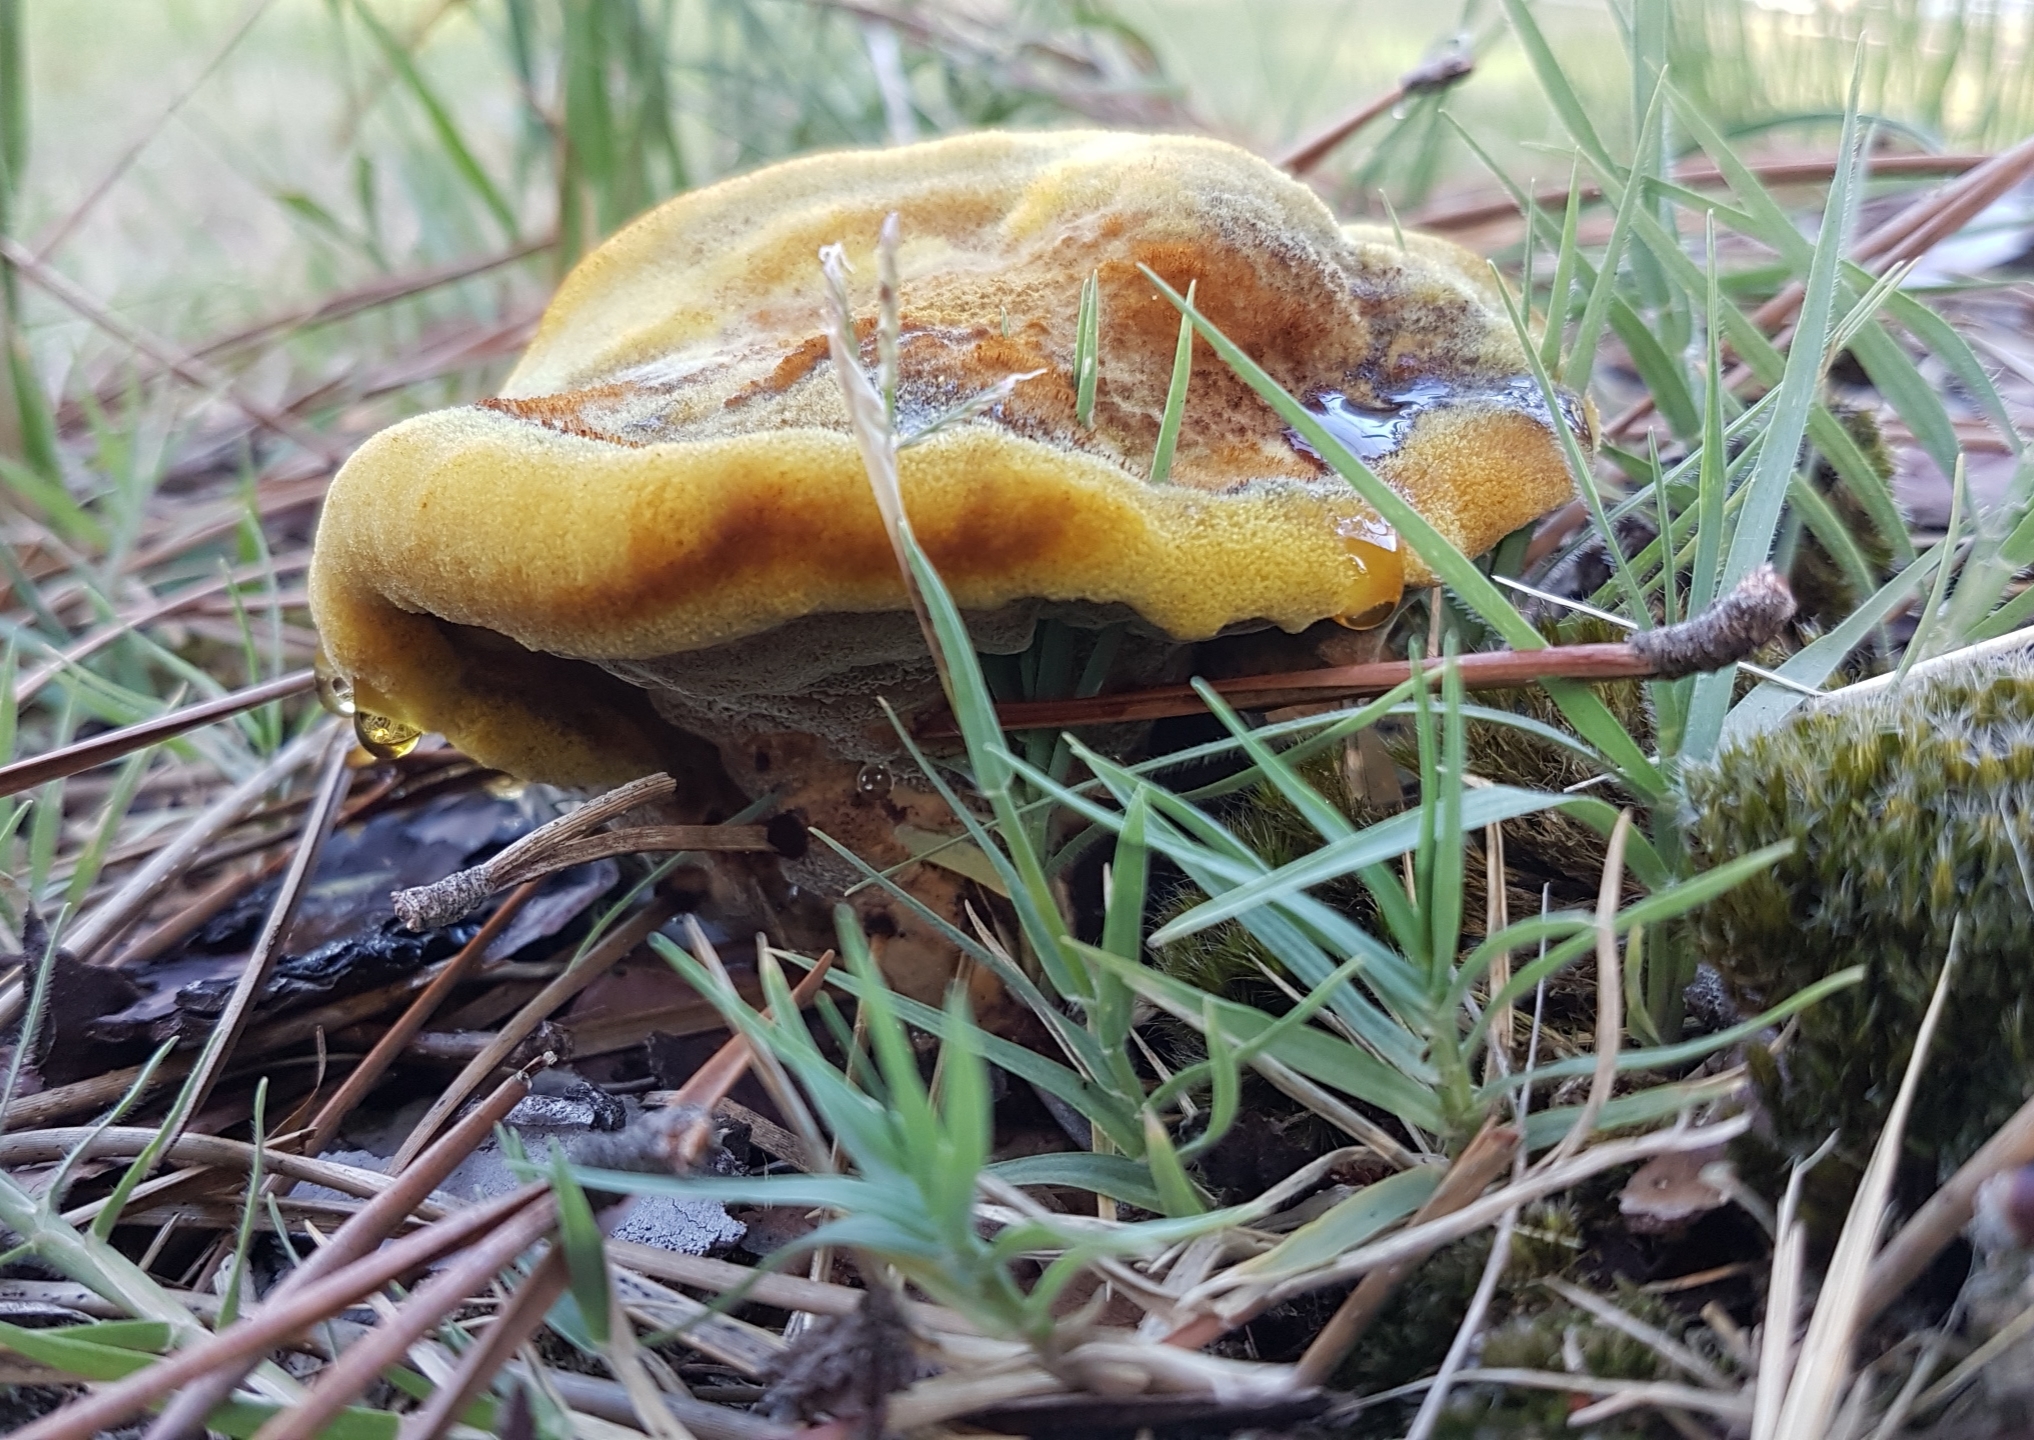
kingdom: Fungi
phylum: Basidiomycota
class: Agaricomycetes
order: Polyporales
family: Laetiporaceae
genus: Phaeolus
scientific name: Phaeolus schweinitzii
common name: Dyer's mazegill
